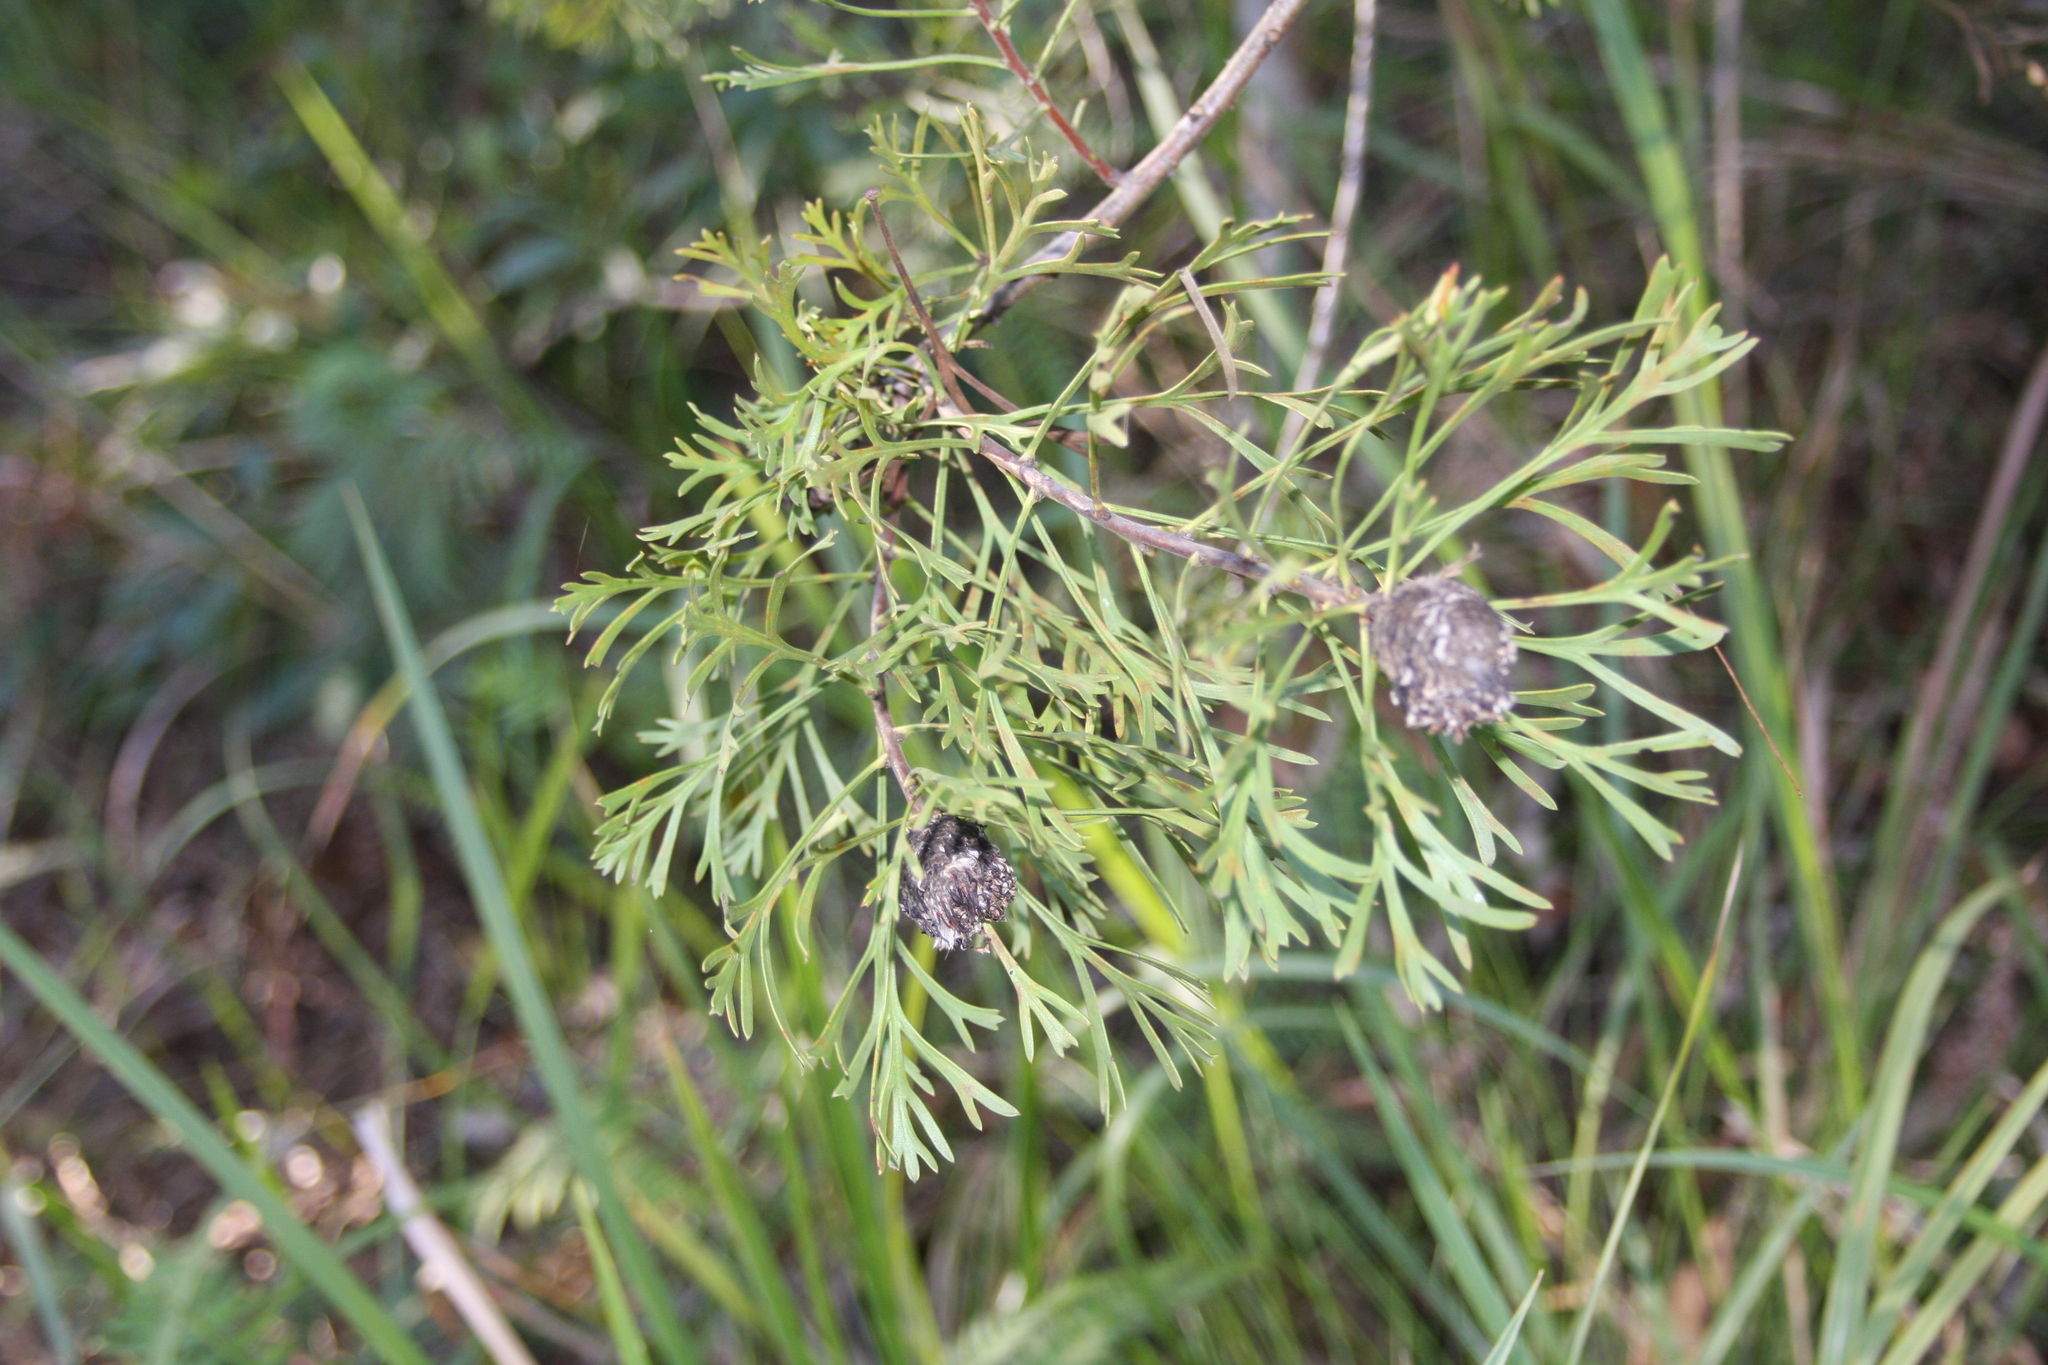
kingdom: Plantae
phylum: Tracheophyta
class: Magnoliopsida
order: Proteales
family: Proteaceae
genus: Isopogon
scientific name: Isopogon anemonifolius
